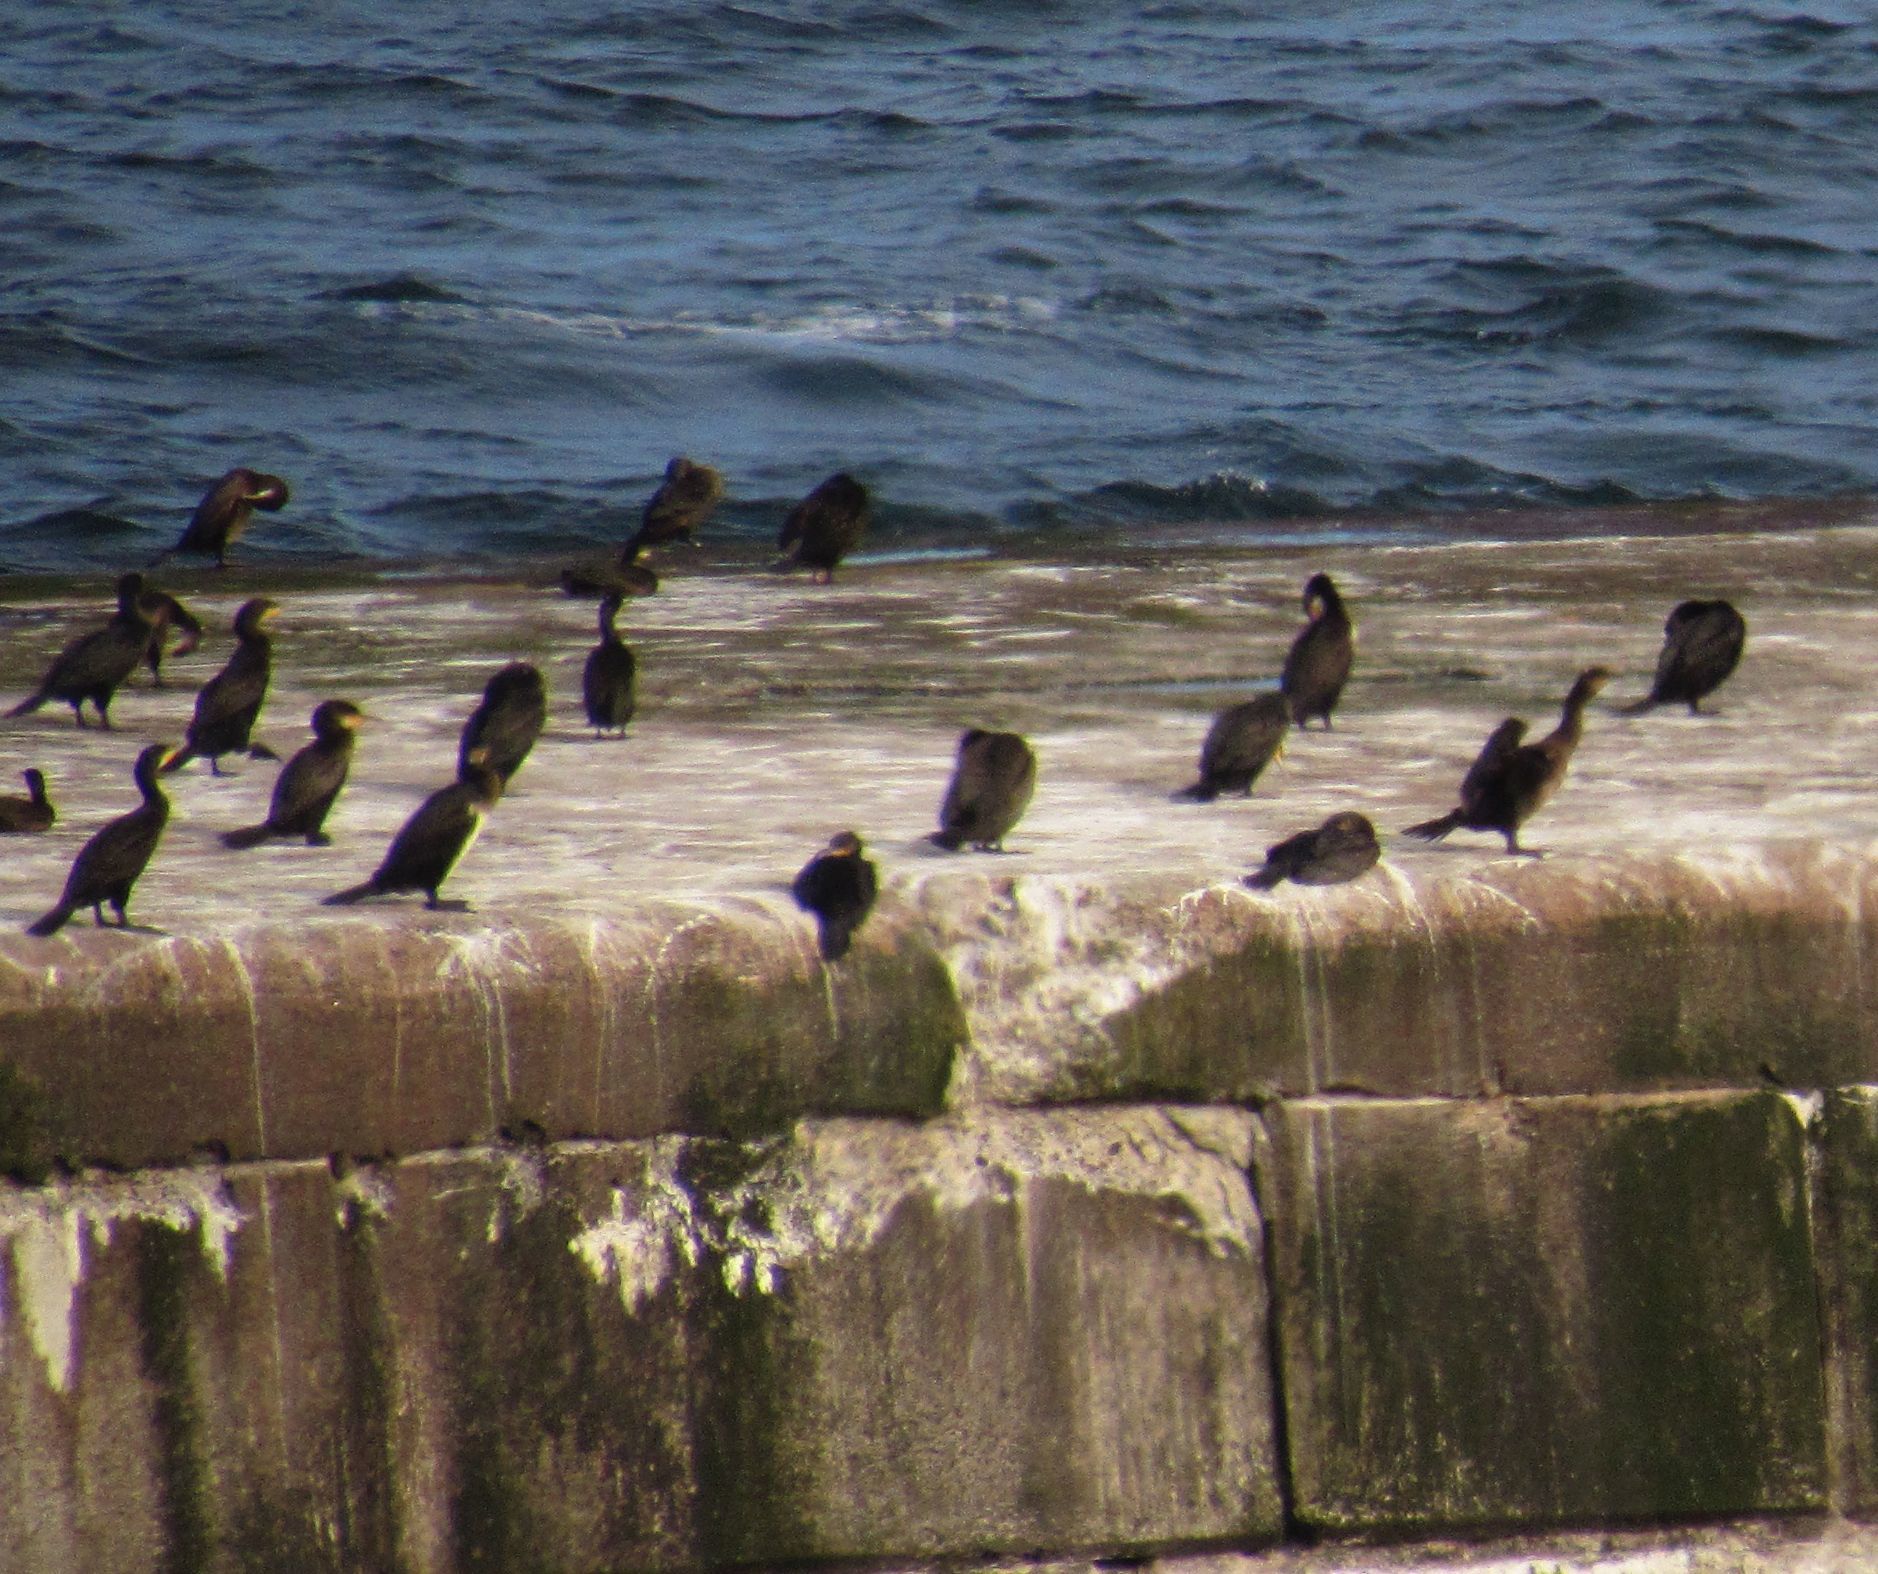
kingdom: Animalia
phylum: Chordata
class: Aves
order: Suliformes
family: Phalacrocoracidae
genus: Phalacrocorax
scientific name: Phalacrocorax carbo
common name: Great cormorant
